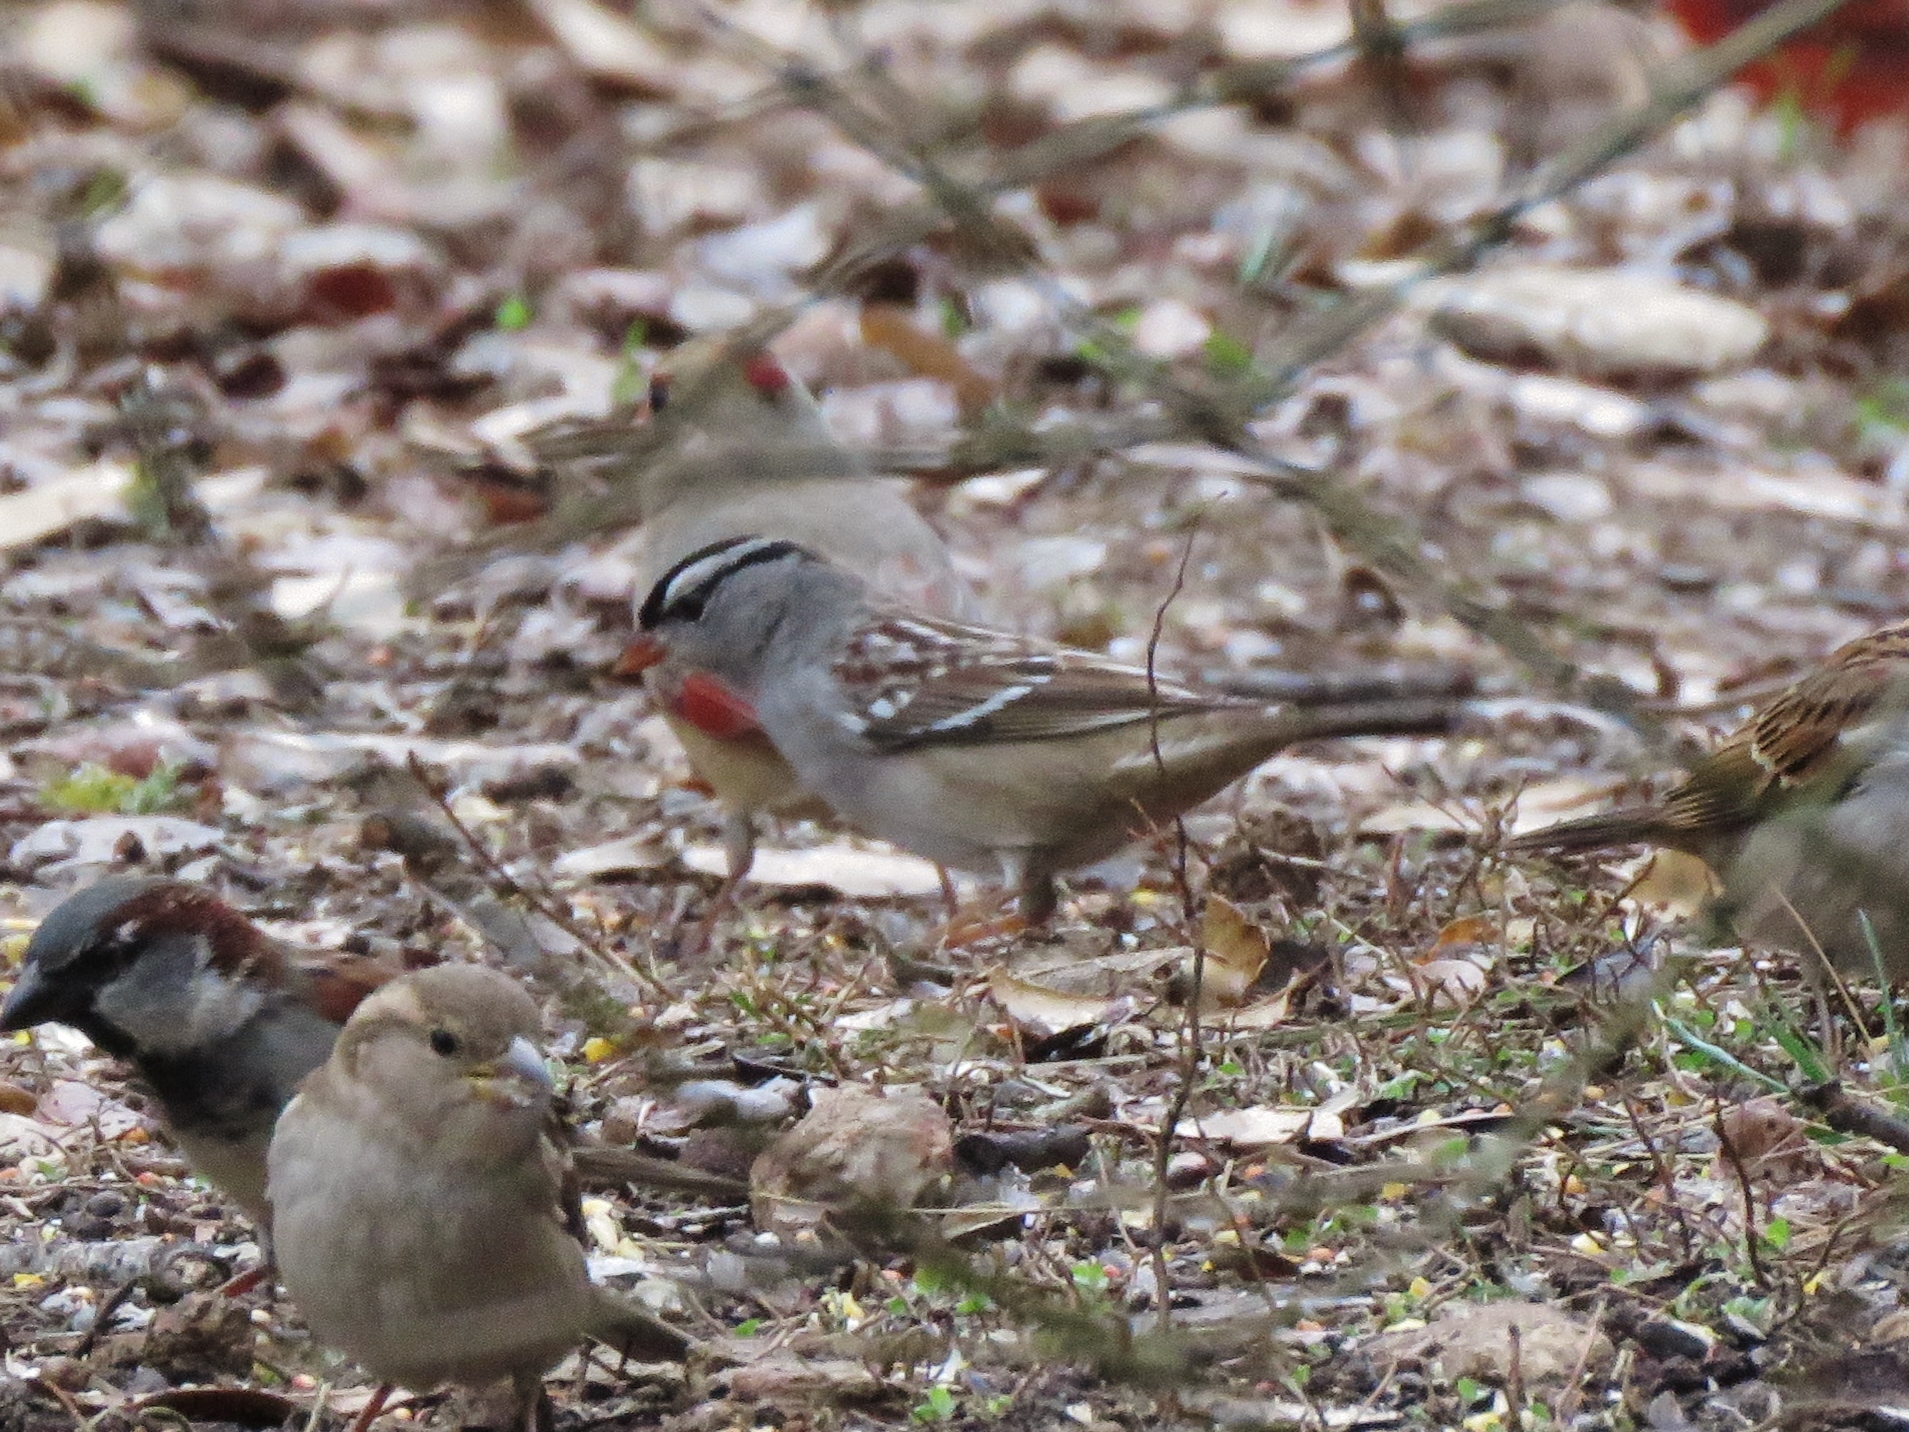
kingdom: Animalia
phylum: Chordata
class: Aves
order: Passeriformes
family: Passerellidae
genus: Zonotrichia
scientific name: Zonotrichia leucophrys
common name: White-crowned sparrow
